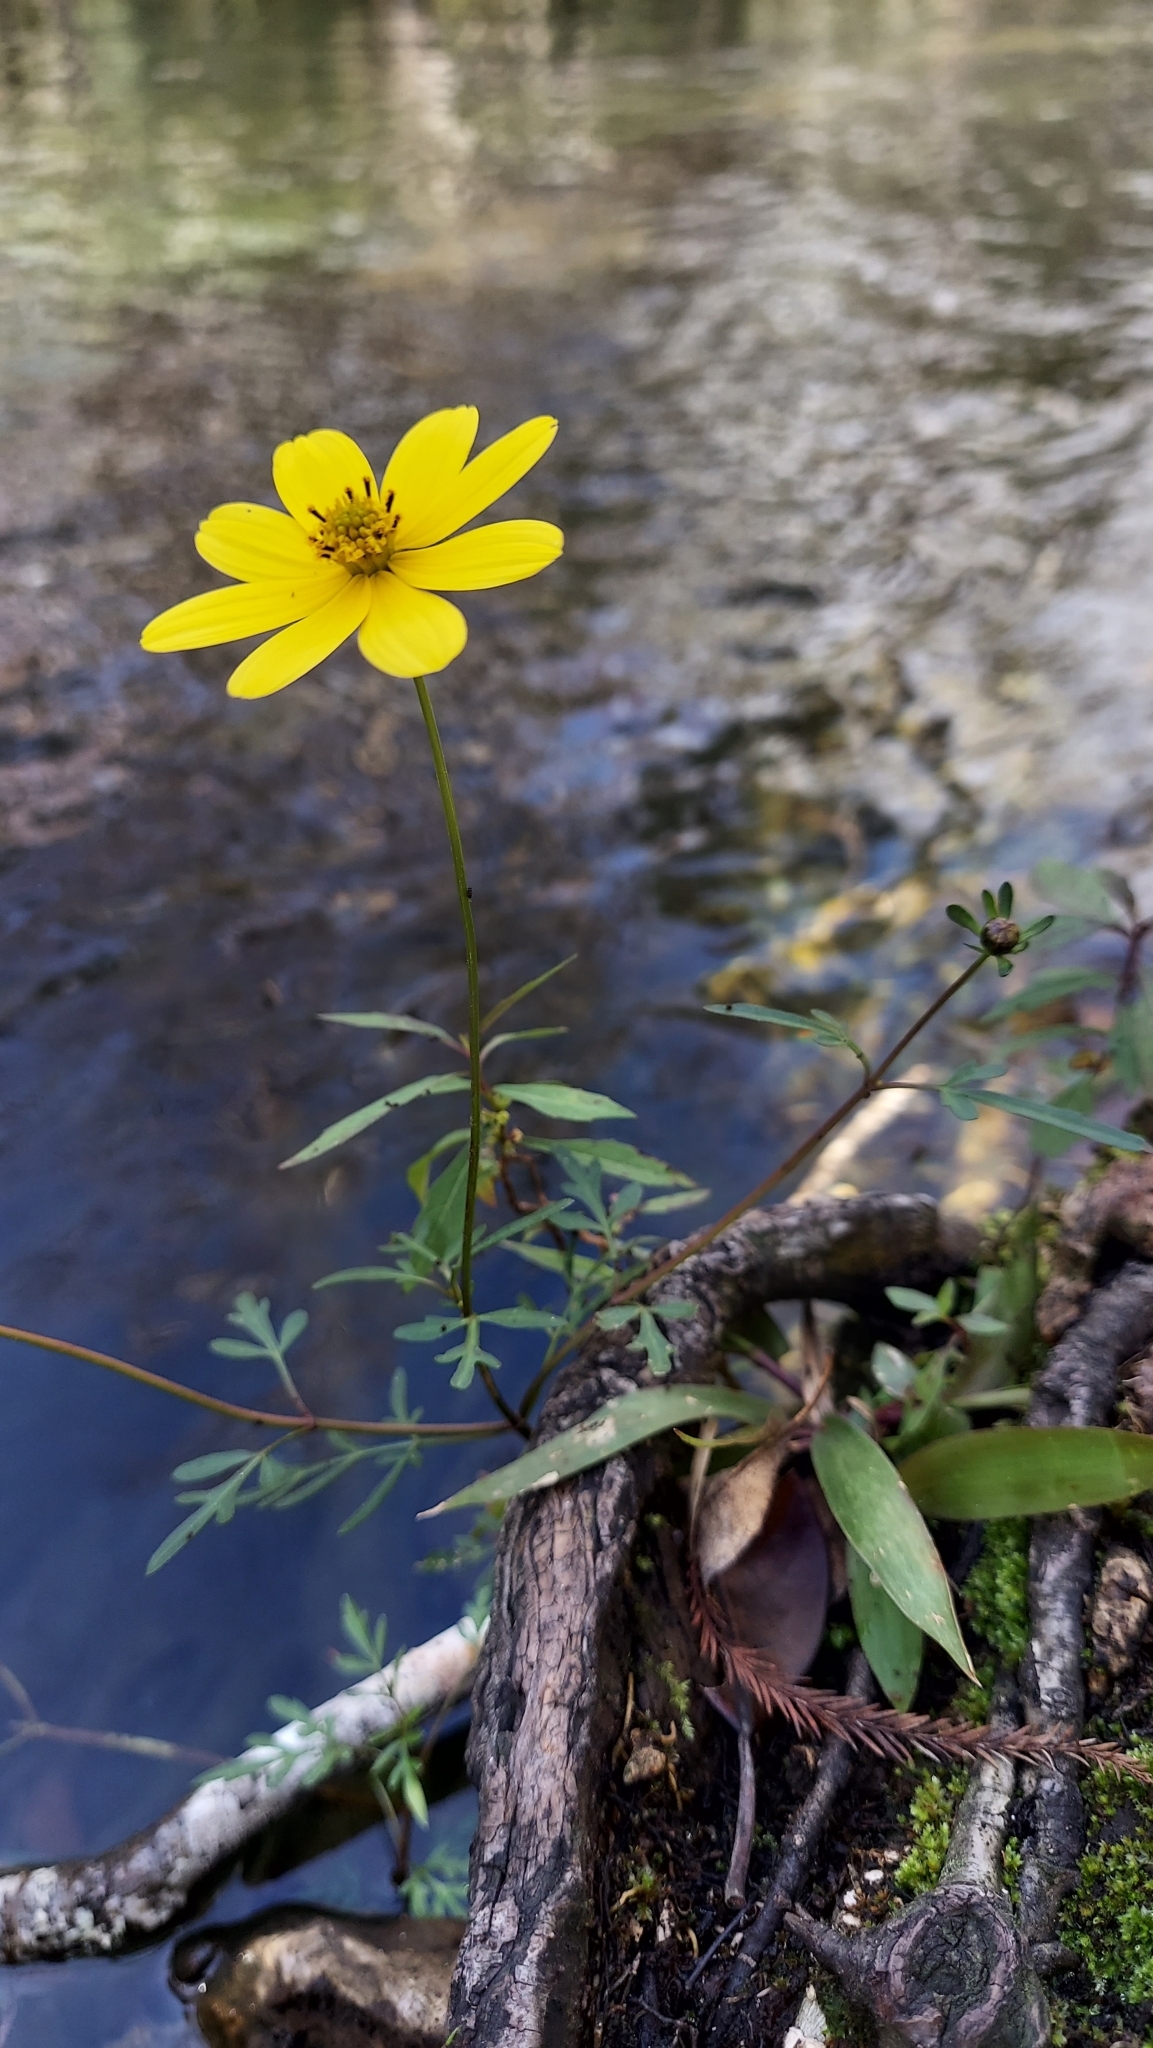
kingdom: Plantae
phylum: Tracheophyta
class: Magnoliopsida
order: Asterales
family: Asteraceae
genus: Bidens
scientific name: Bidens mitis
